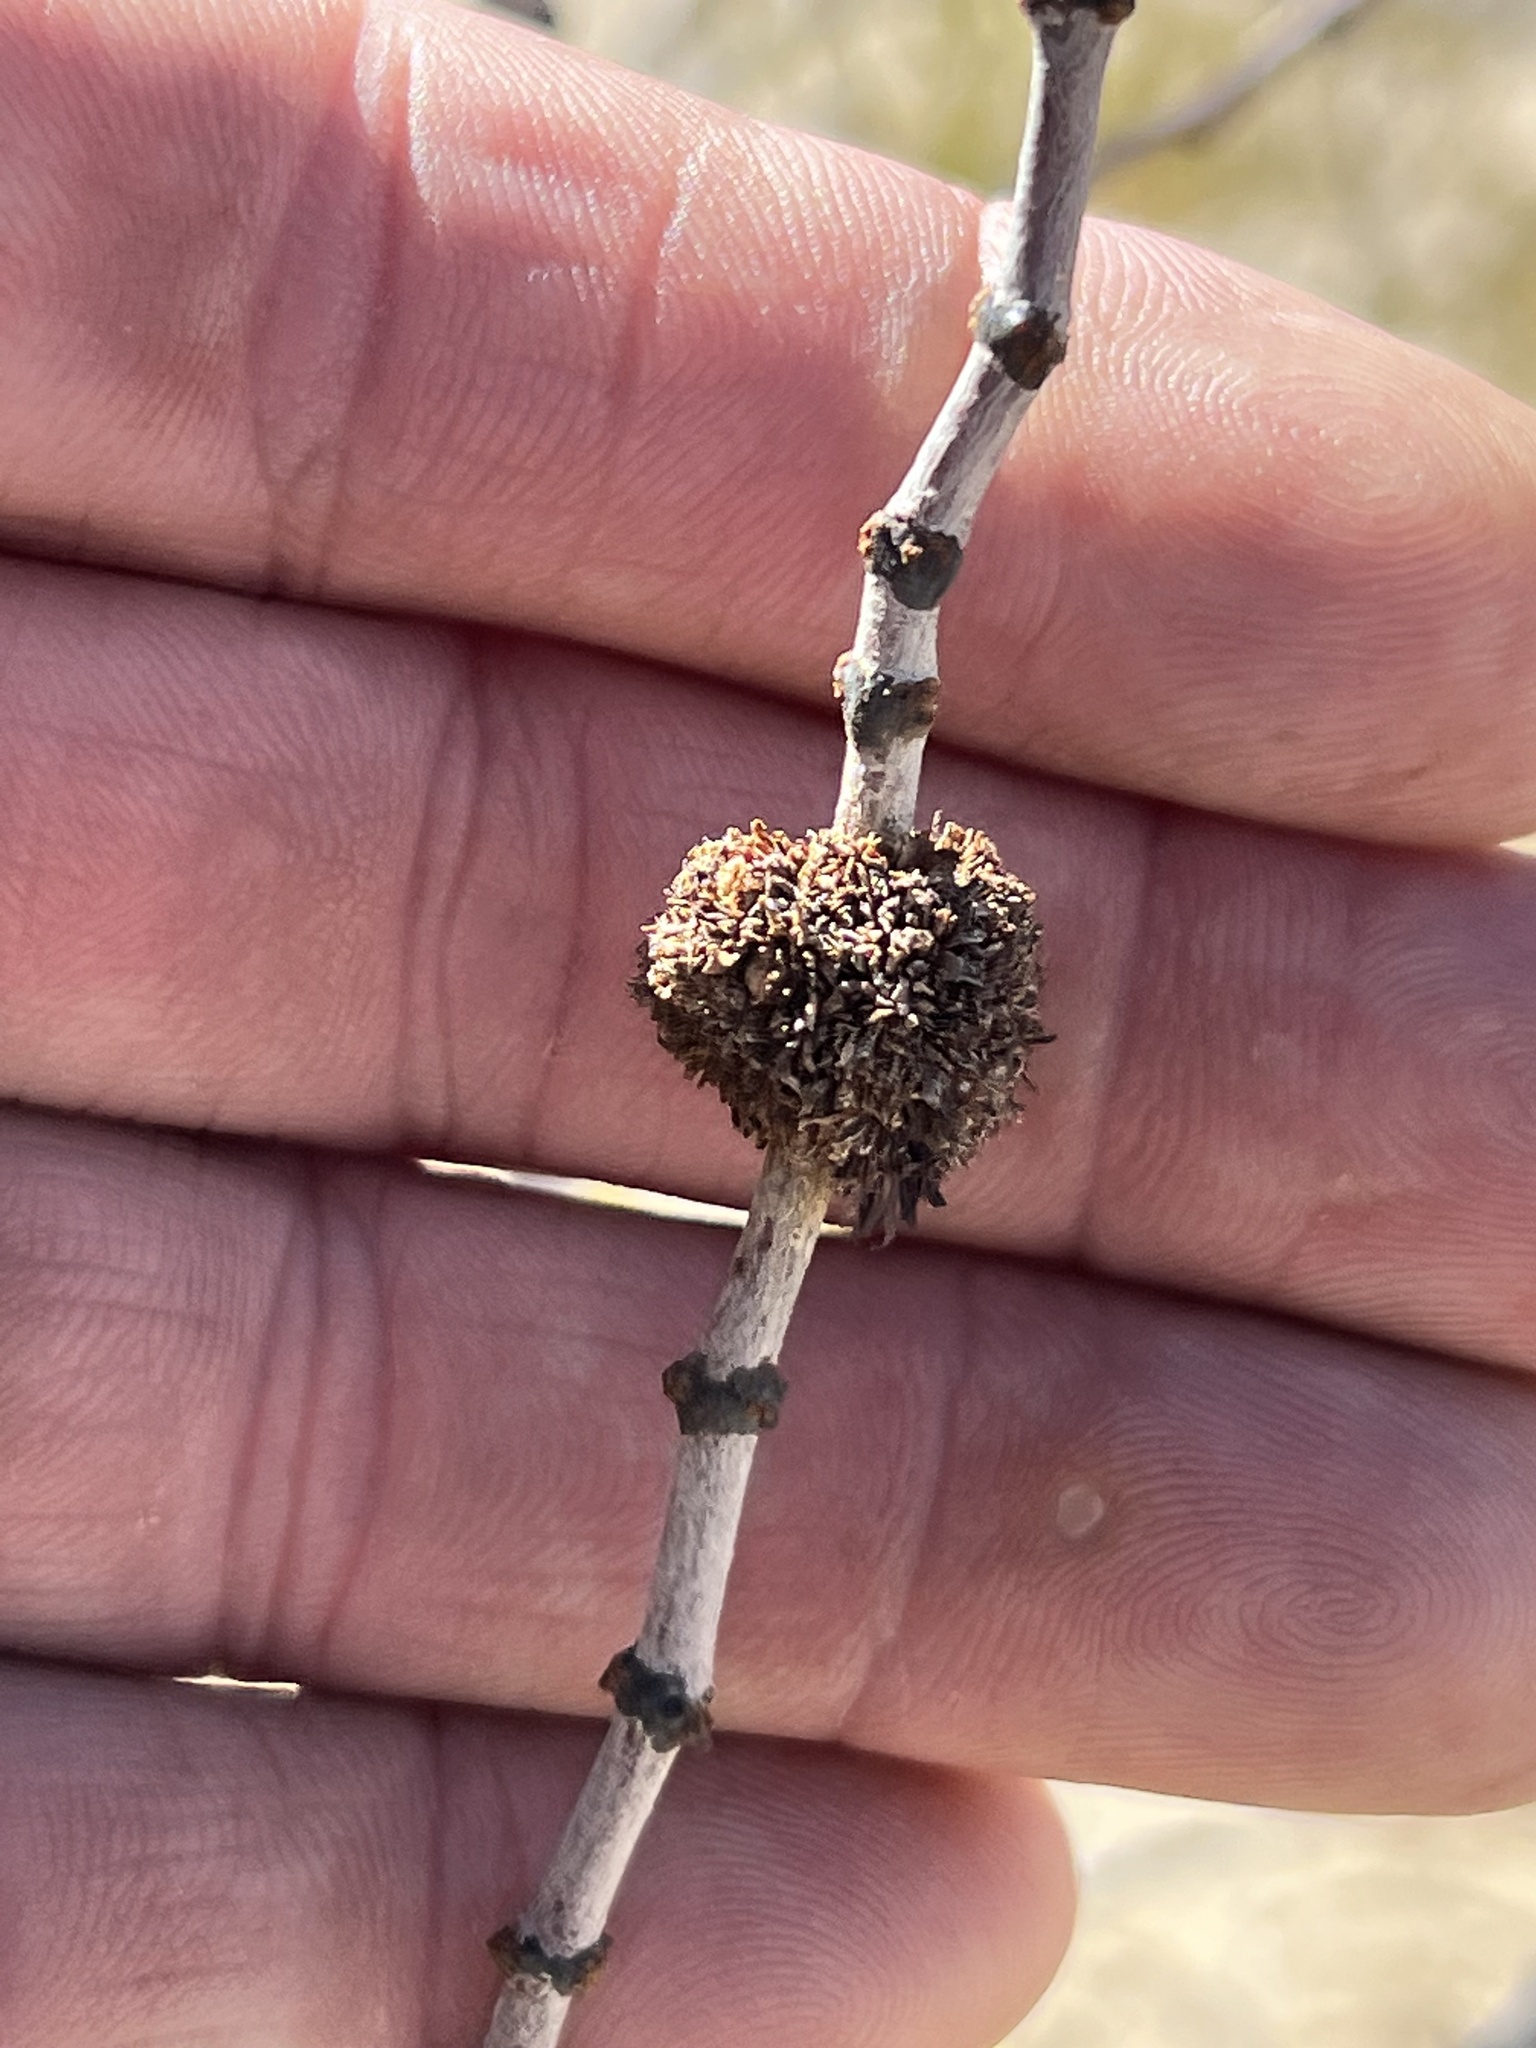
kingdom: Animalia
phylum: Arthropoda
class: Insecta
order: Diptera
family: Cecidomyiidae
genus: Asphondylia
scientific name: Asphondylia auripila
